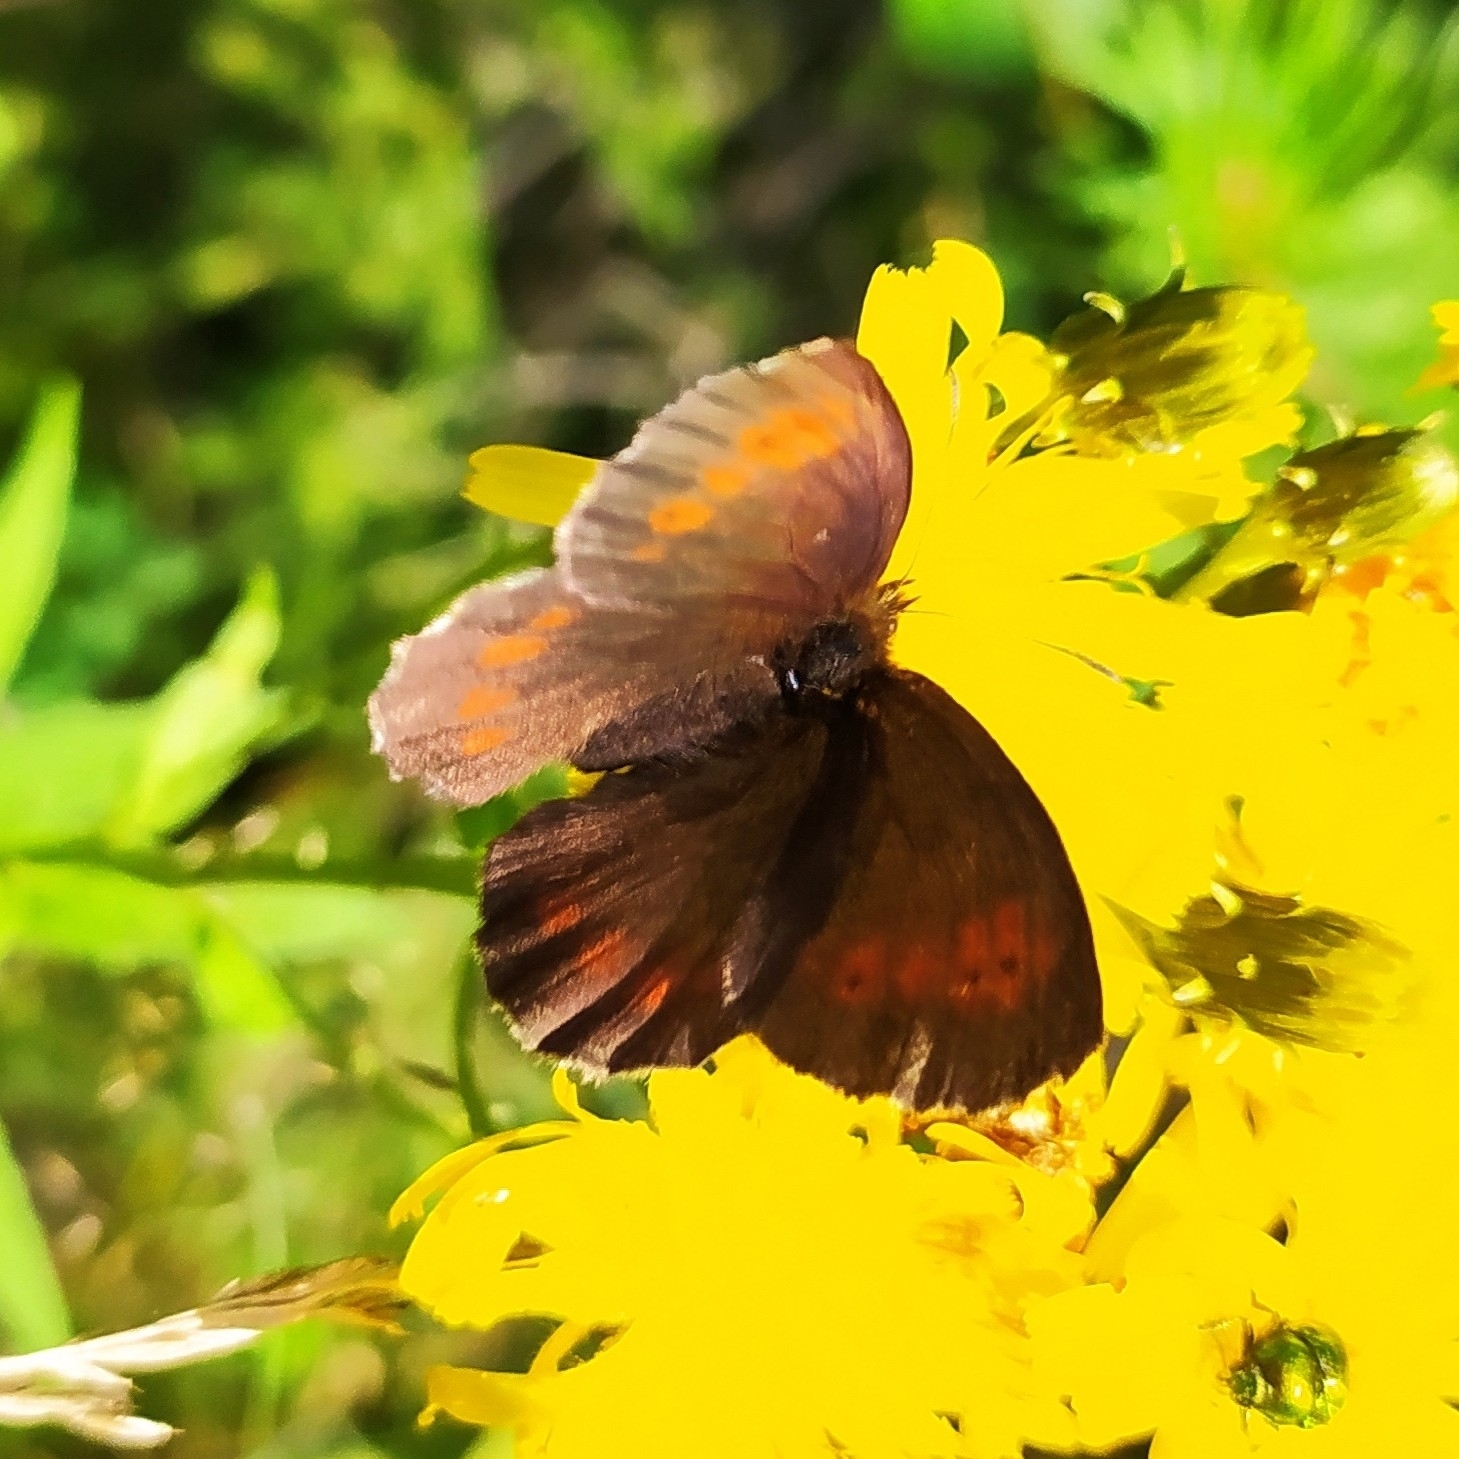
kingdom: Animalia
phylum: Arthropoda
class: Insecta
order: Lepidoptera
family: Nymphalidae
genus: Erebia
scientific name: Erebia euryale
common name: Large ringlet
